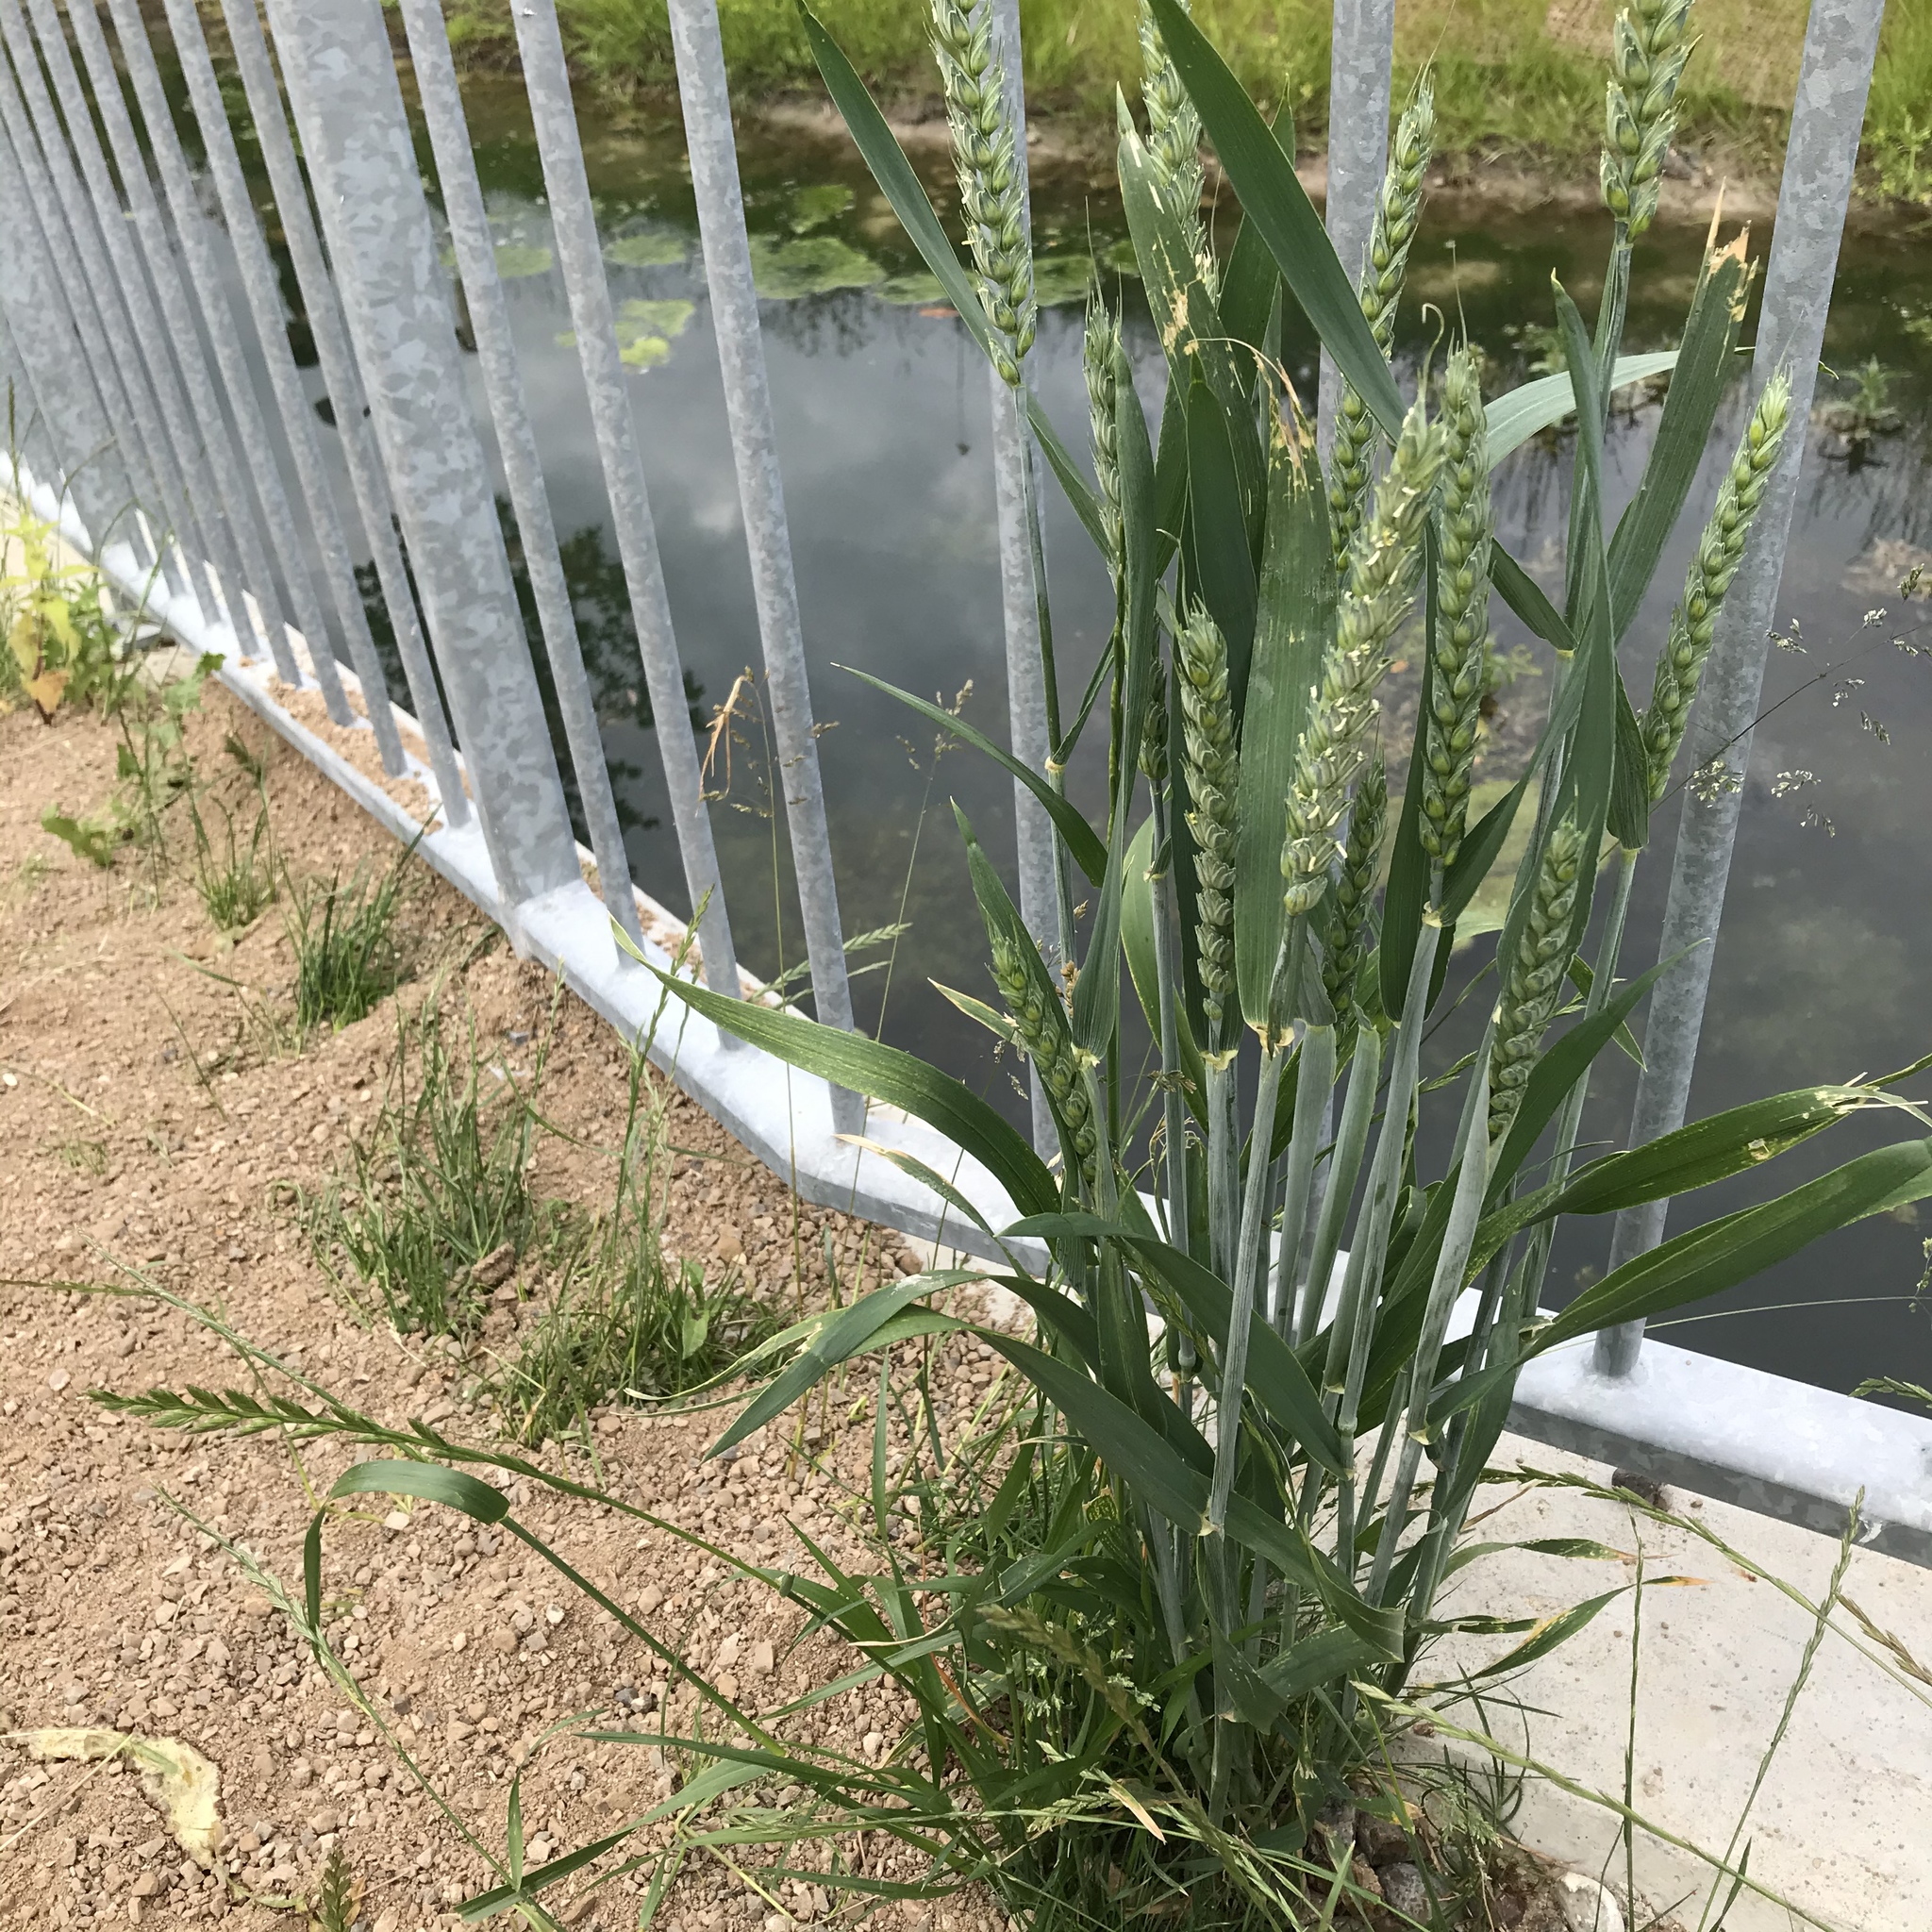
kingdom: Plantae
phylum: Tracheophyta
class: Liliopsida
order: Poales
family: Poaceae
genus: Triticum
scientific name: Triticum aestivum
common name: Common wheat
